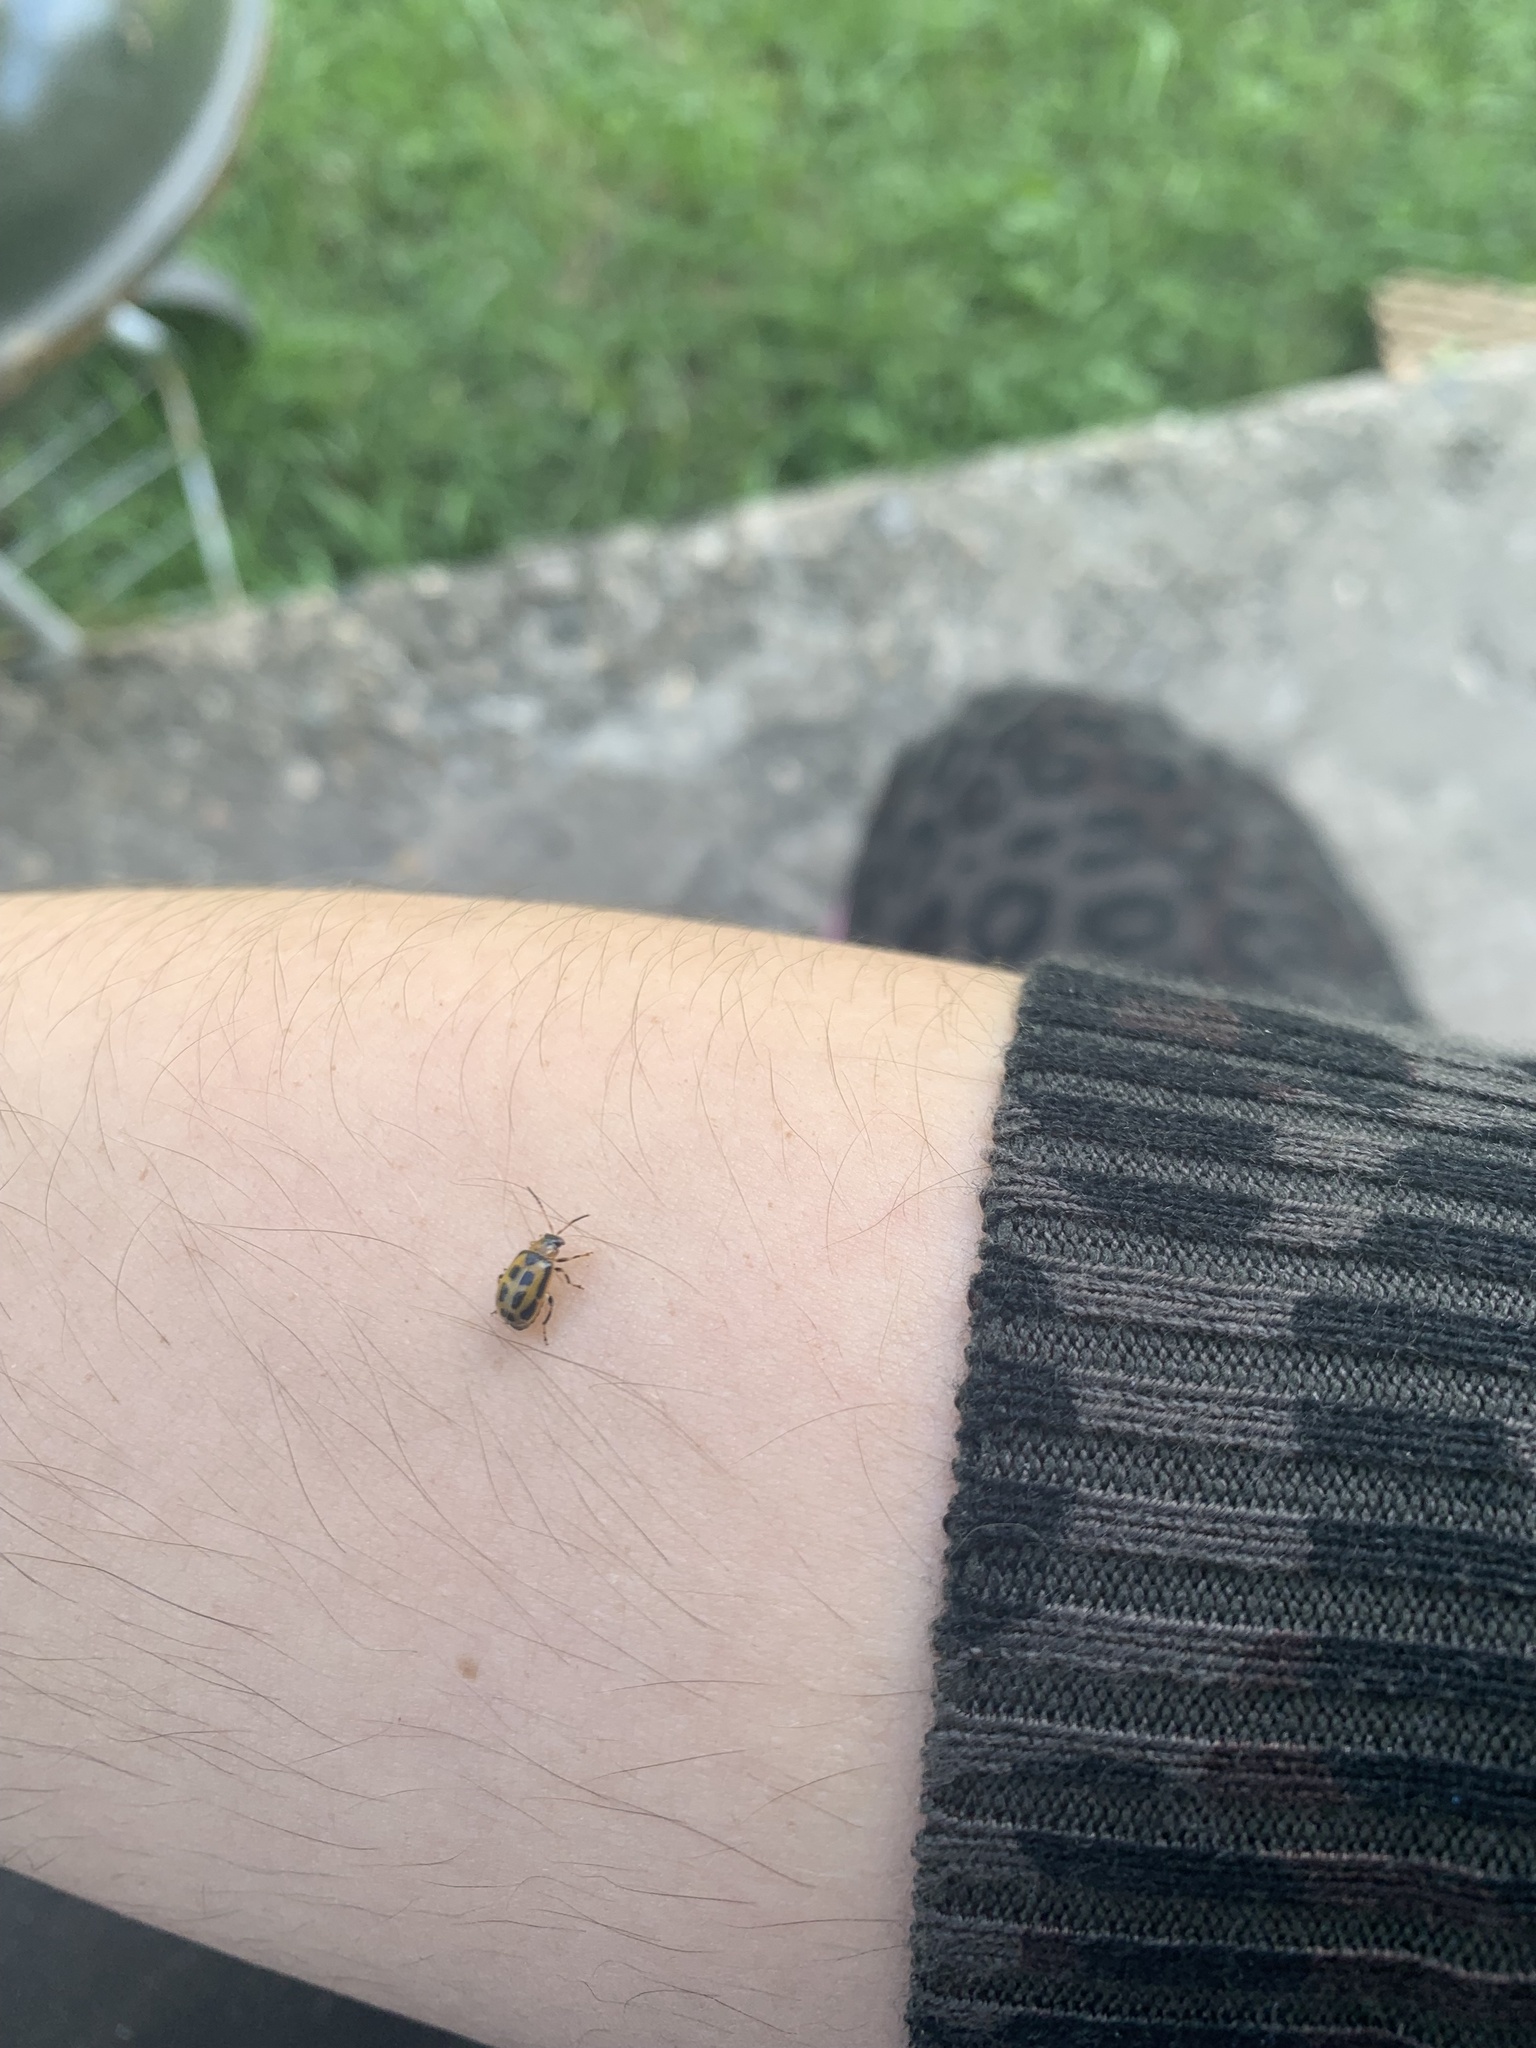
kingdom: Animalia
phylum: Arthropoda
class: Insecta
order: Coleoptera
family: Chrysomelidae
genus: Cerotoma
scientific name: Cerotoma trifurcata
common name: Bean leaf beetle
